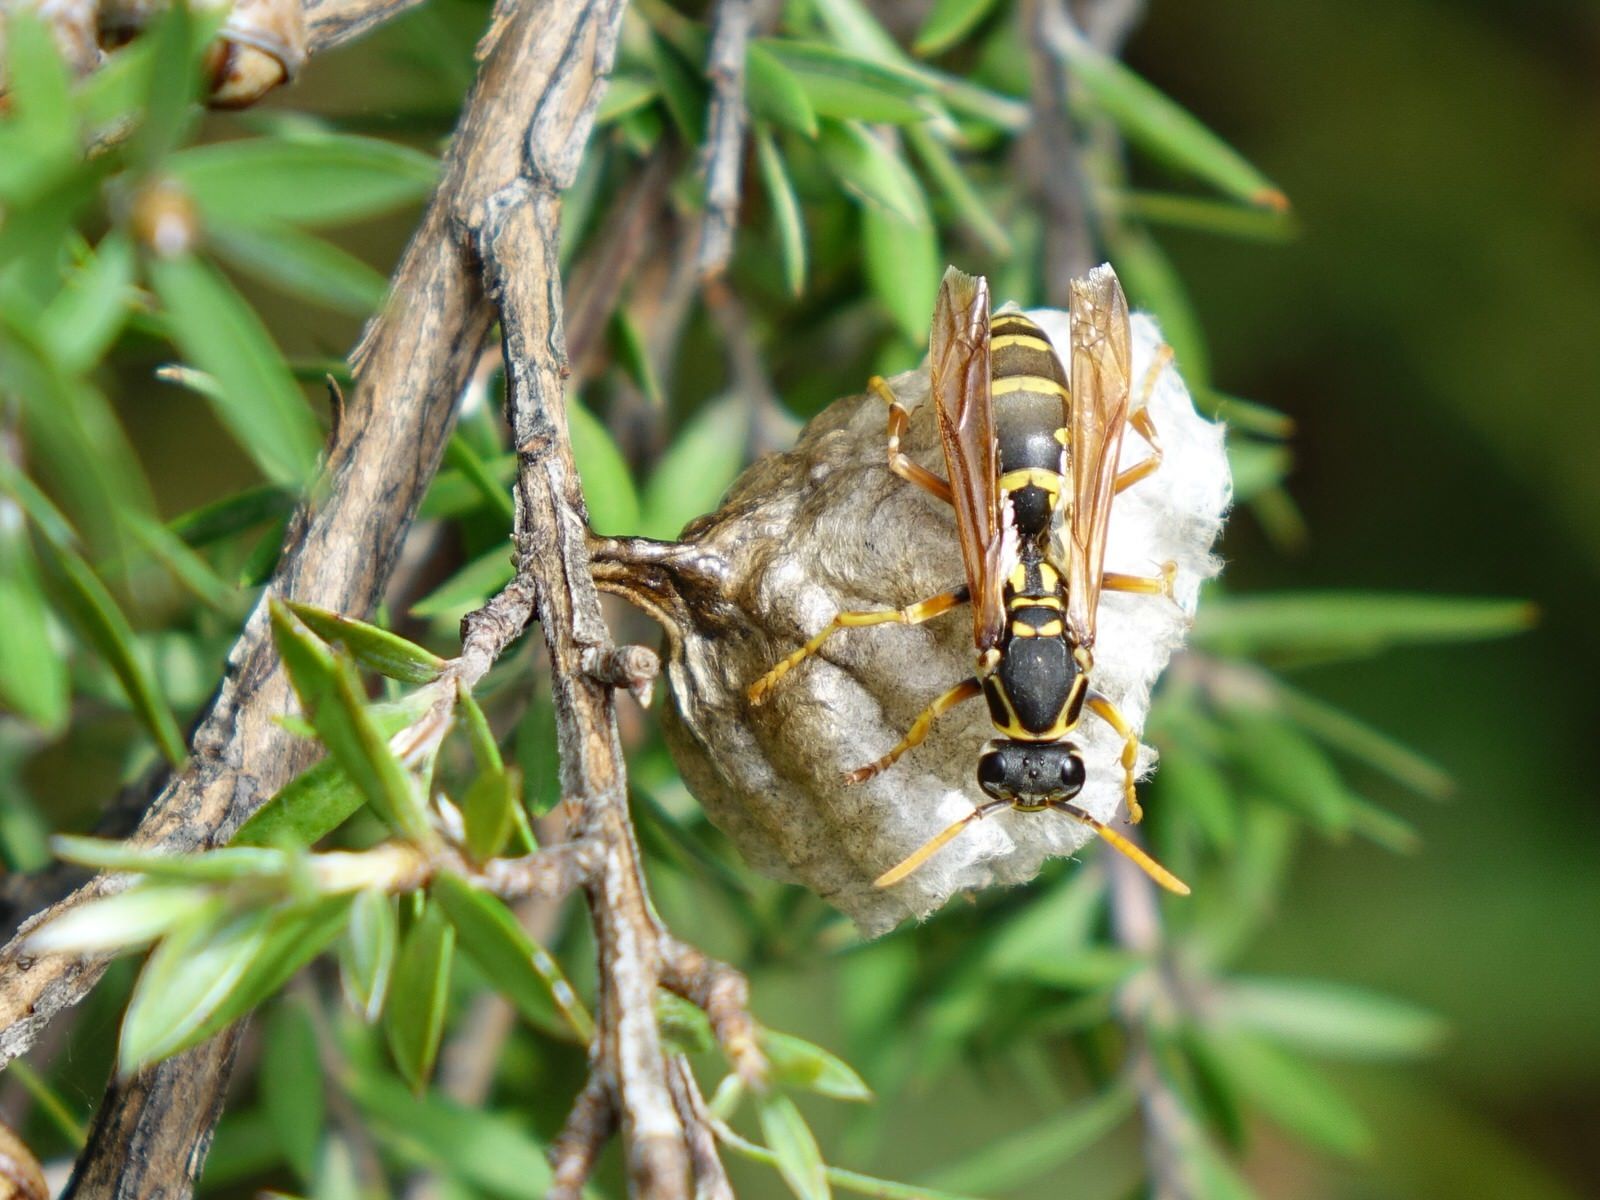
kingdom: Animalia
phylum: Arthropoda
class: Insecta
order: Hymenoptera
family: Eumenidae
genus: Polistes
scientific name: Polistes chinensis
